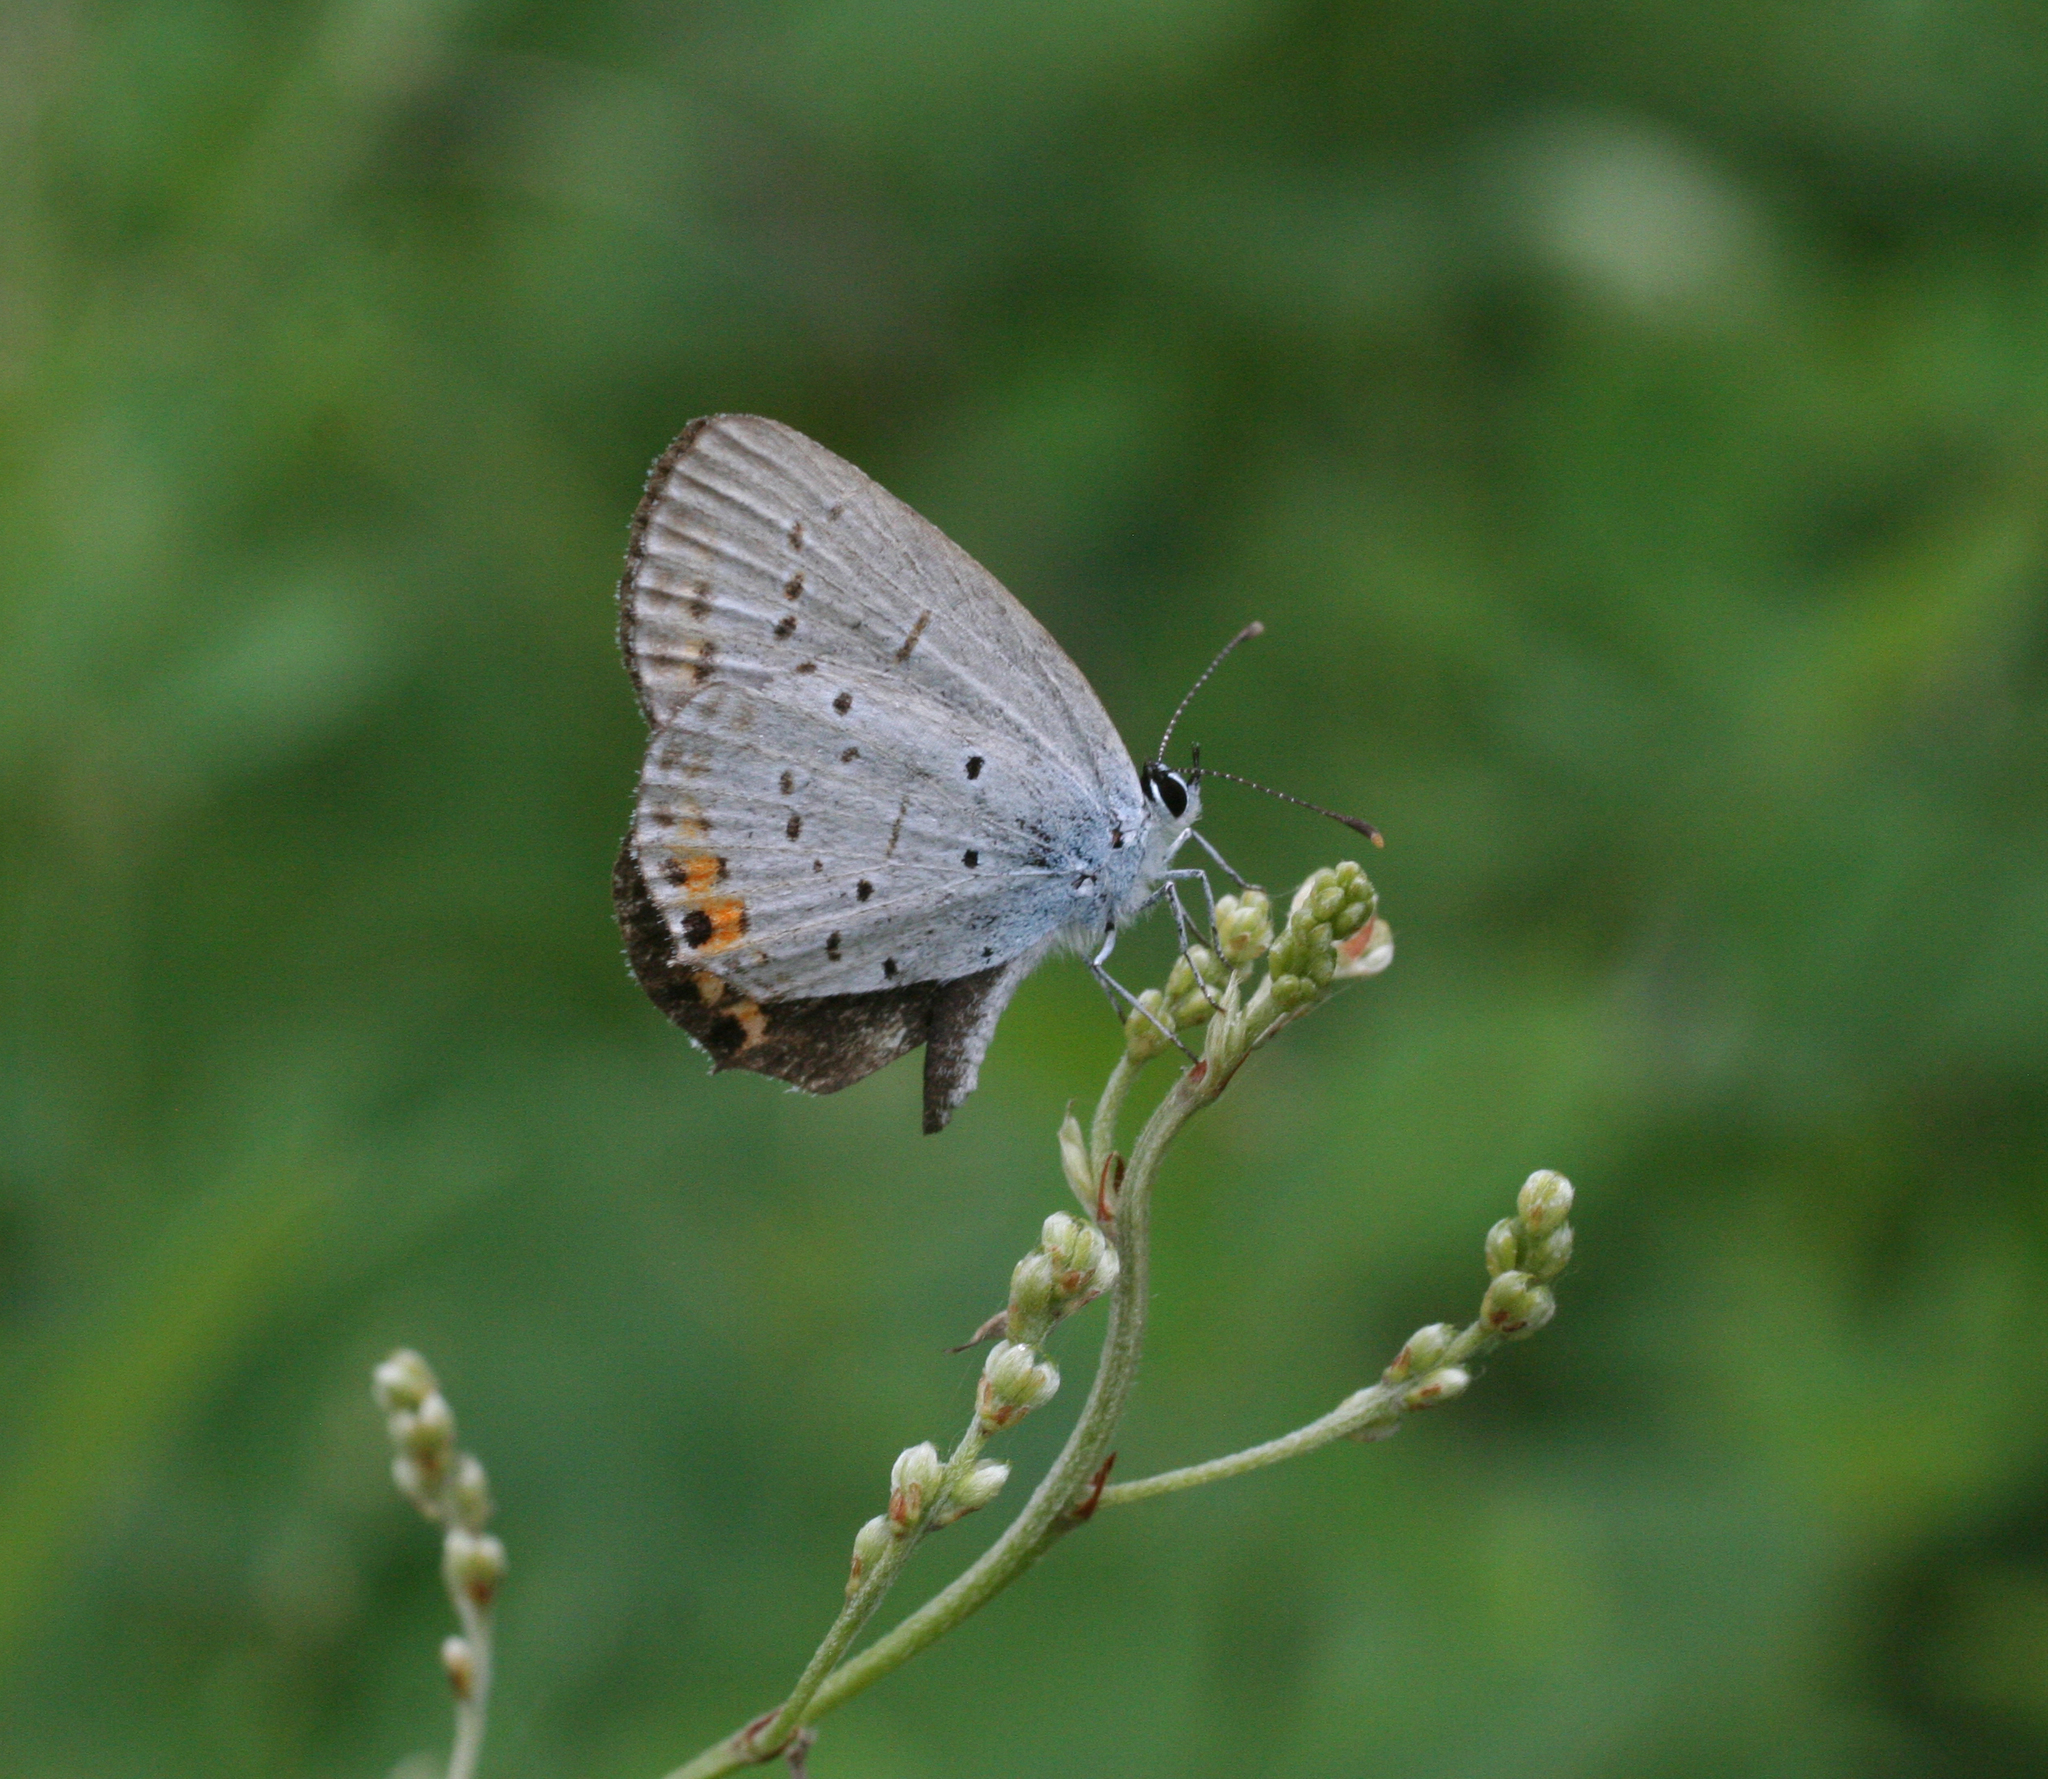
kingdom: Animalia
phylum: Arthropoda
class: Insecta
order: Lepidoptera
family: Lycaenidae
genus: Elkalyce
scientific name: Elkalyce argiades
